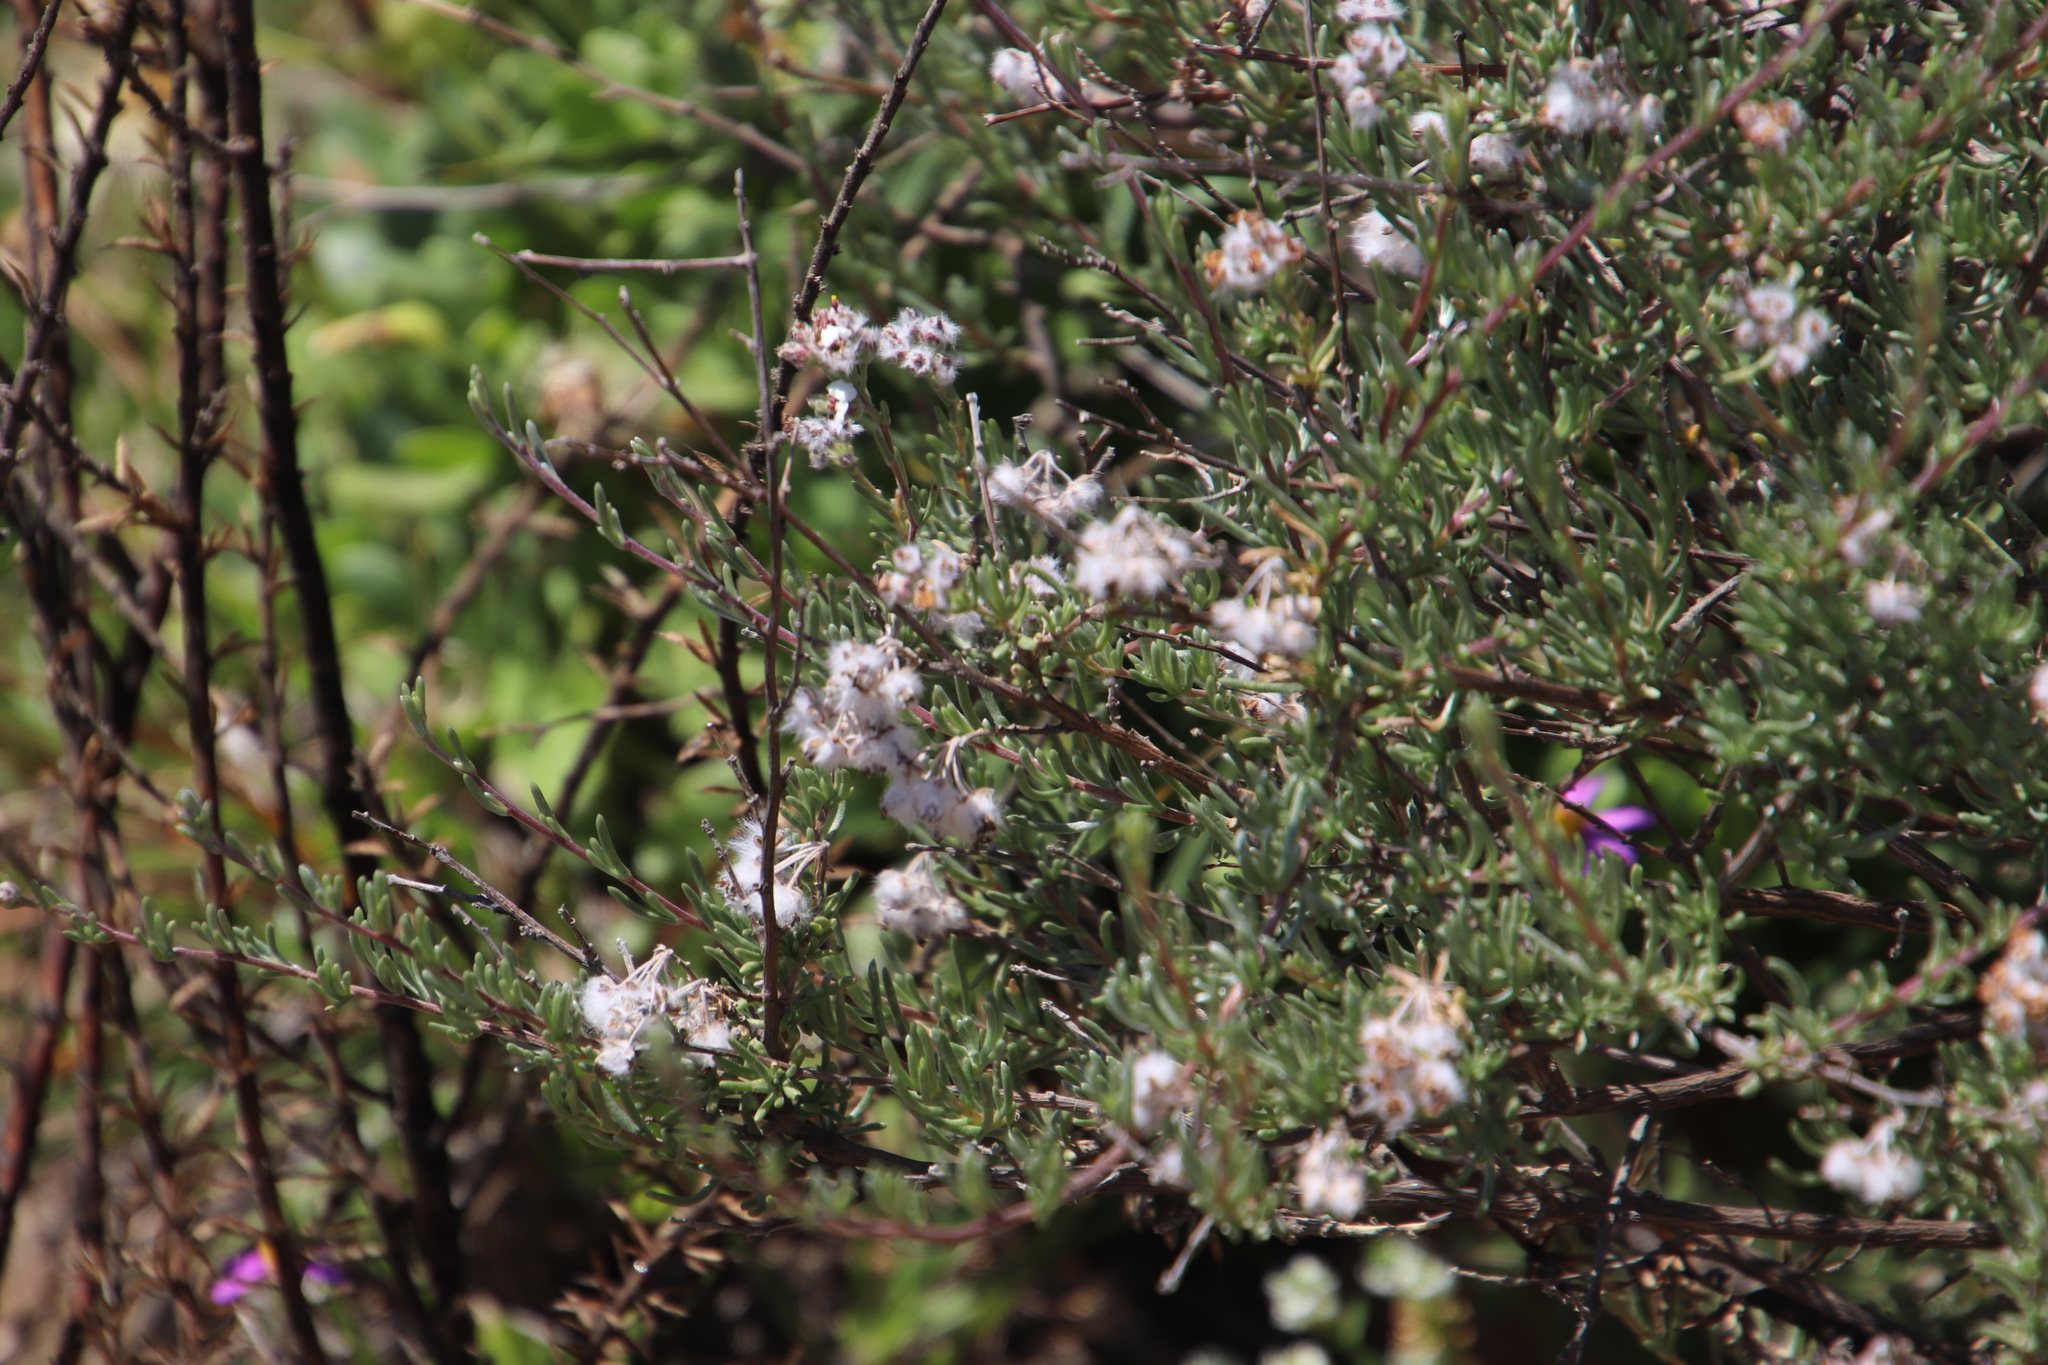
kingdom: Plantae
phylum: Tracheophyta
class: Magnoliopsida
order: Asterales
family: Asteraceae
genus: Eriocephalus
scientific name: Eriocephalus africanus
